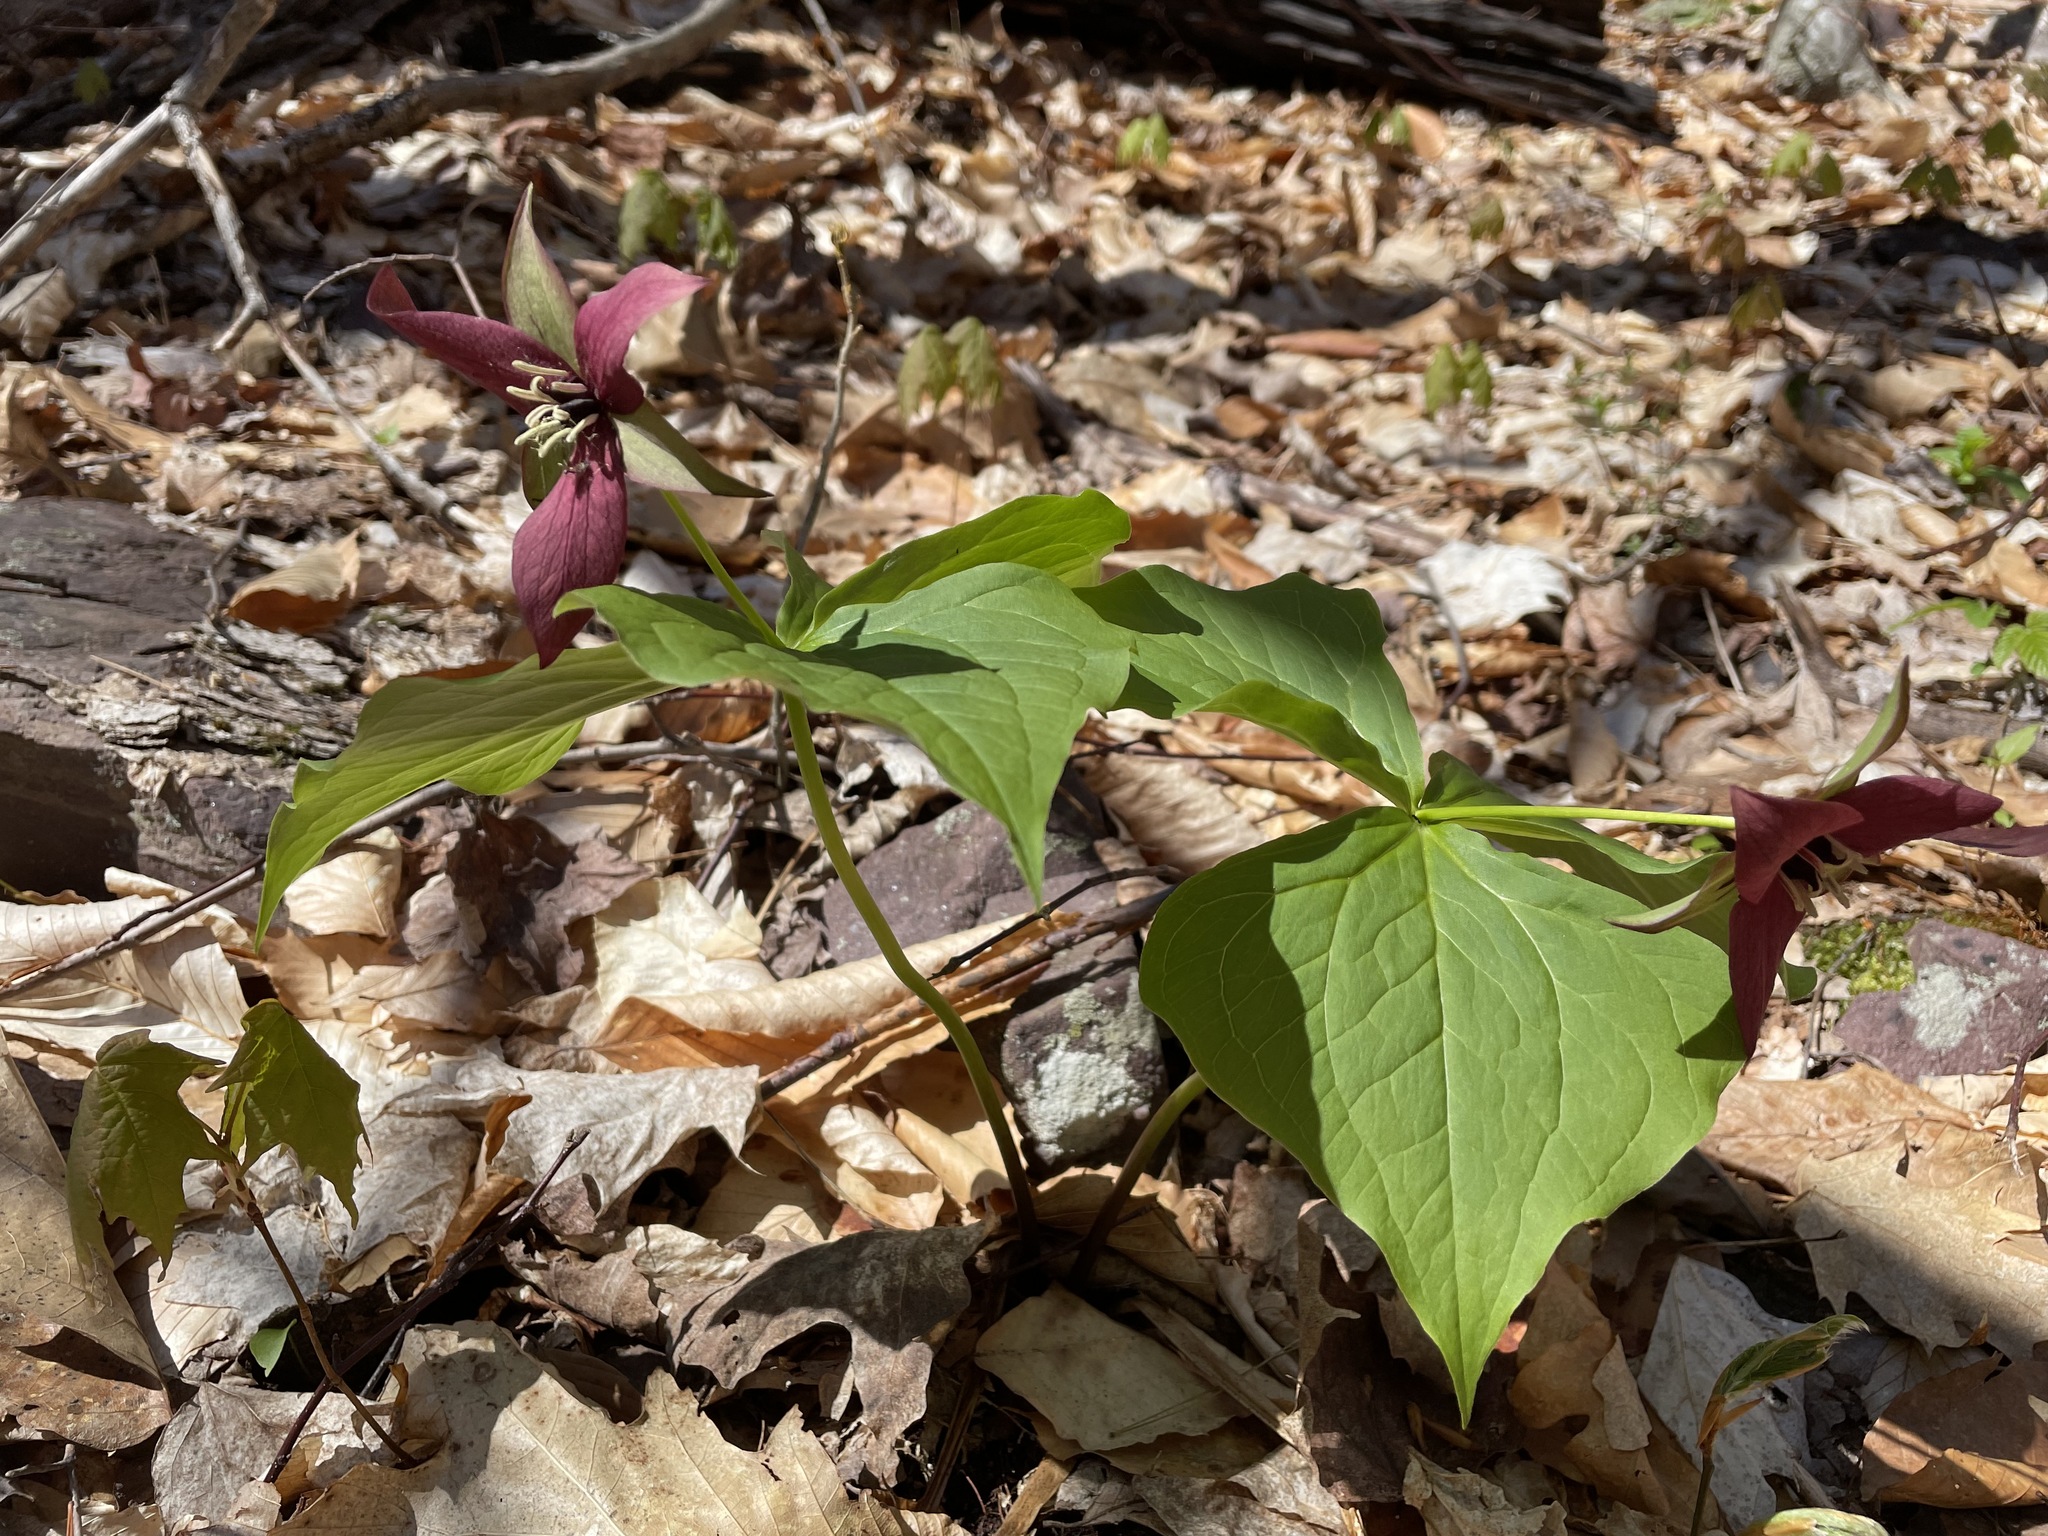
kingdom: Plantae
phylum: Tracheophyta
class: Liliopsida
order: Liliales
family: Melanthiaceae
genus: Trillium
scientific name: Trillium erectum
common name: Purple trillium
